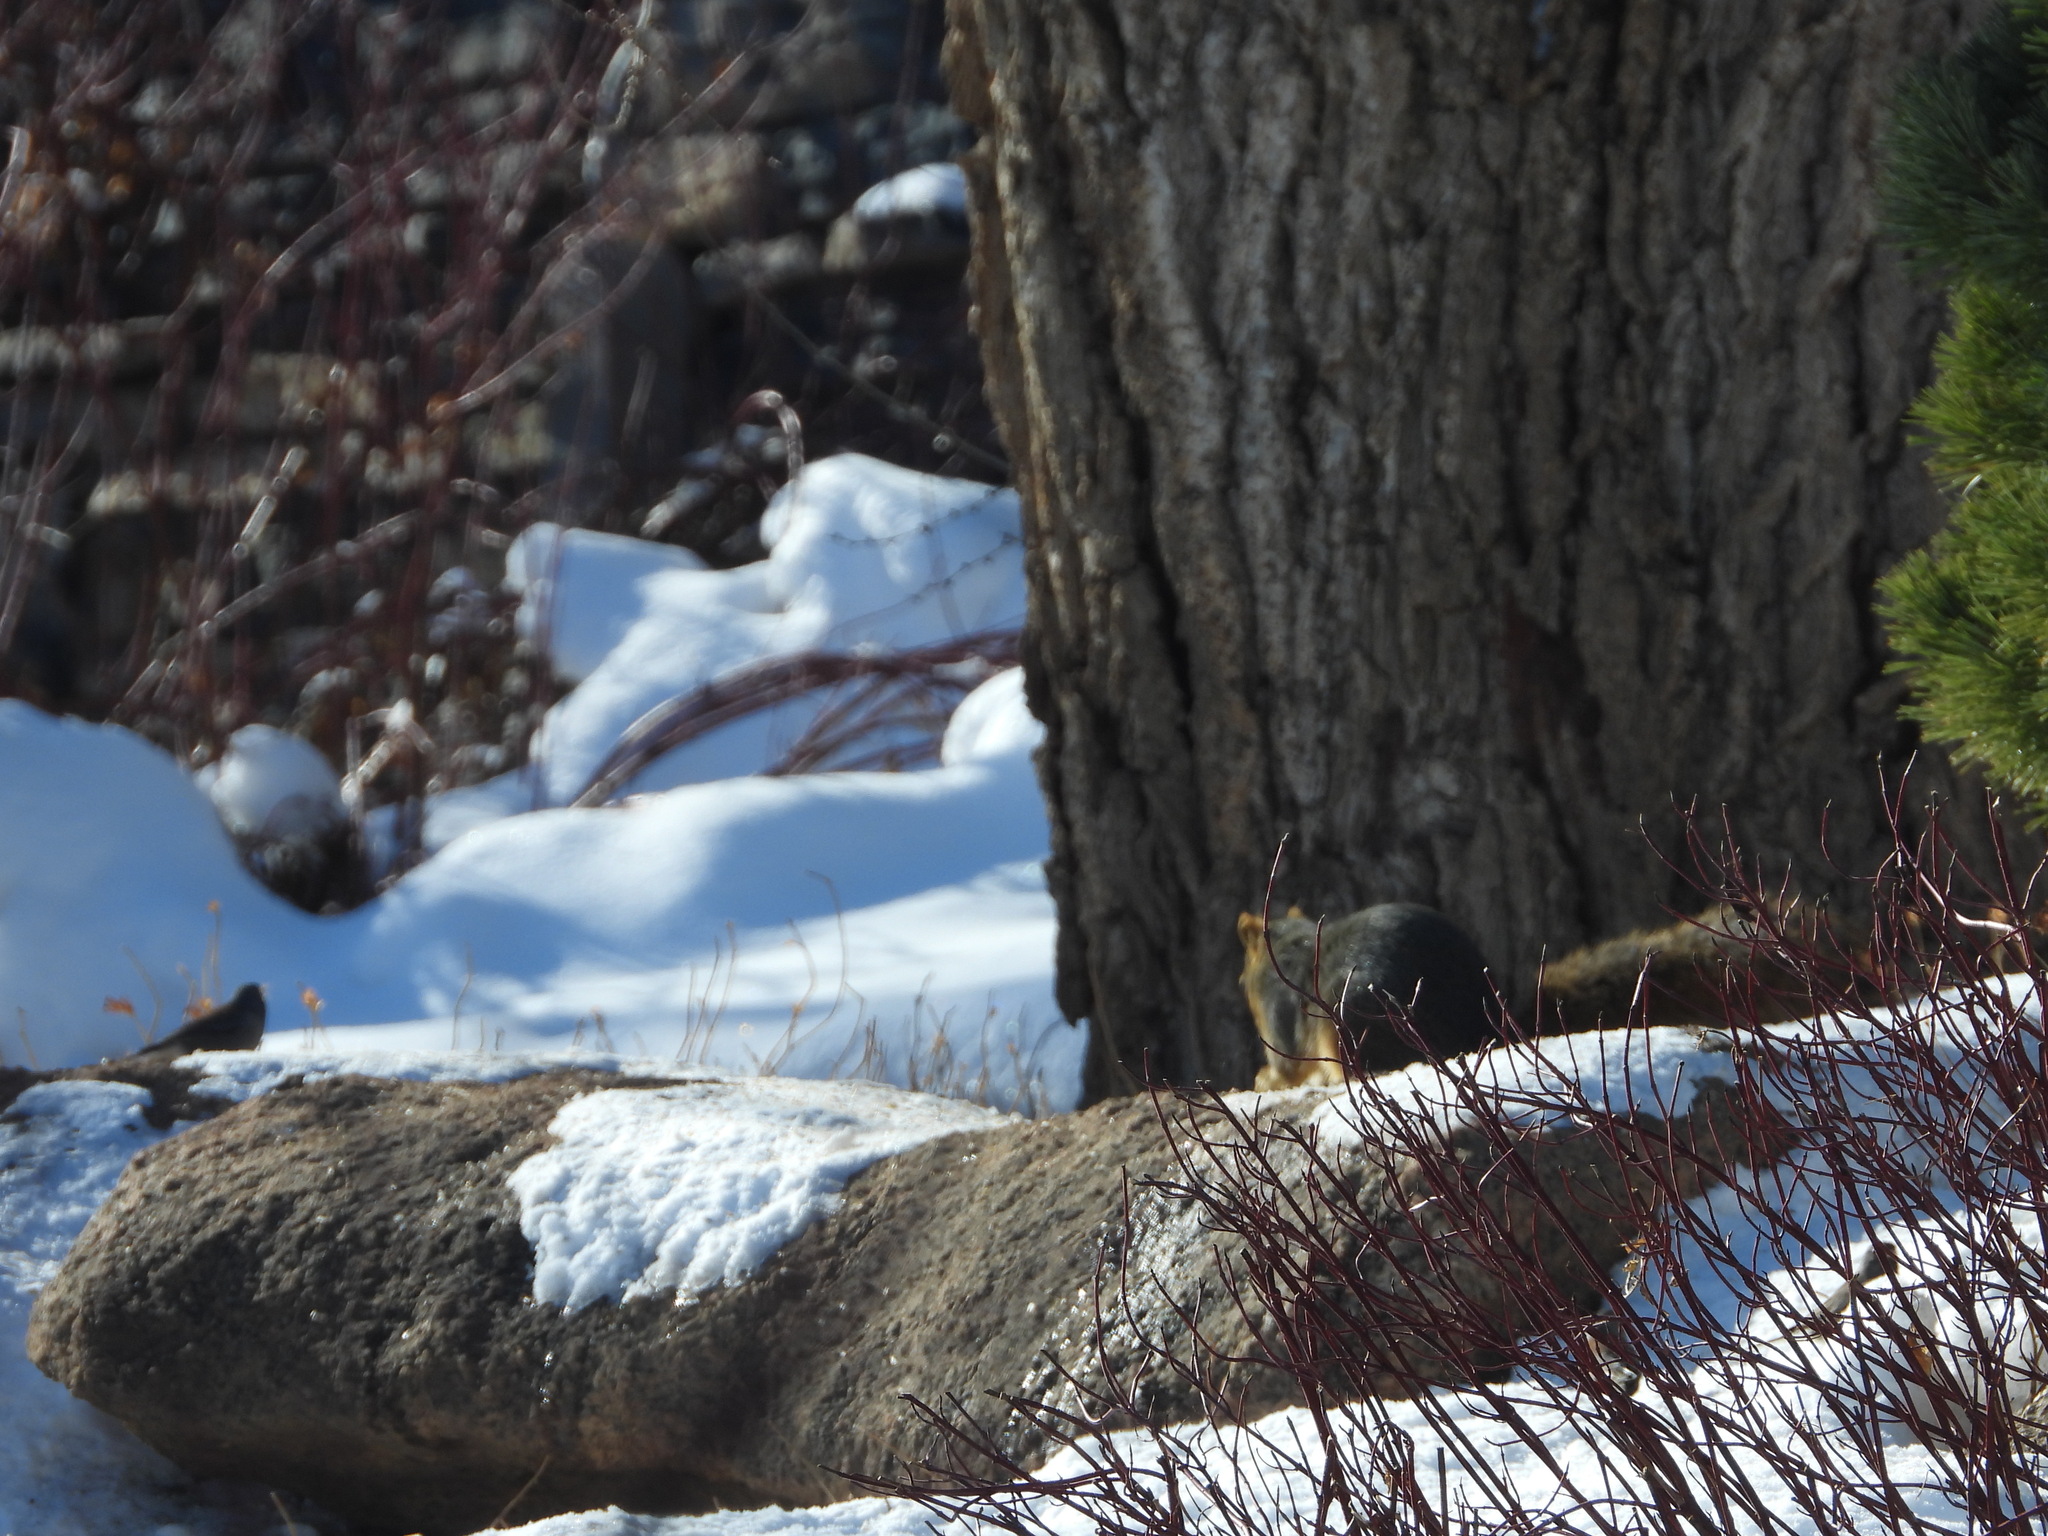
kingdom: Animalia
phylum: Chordata
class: Mammalia
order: Rodentia
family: Sciuridae
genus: Sciurus
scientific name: Sciurus niger
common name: Fox squirrel
